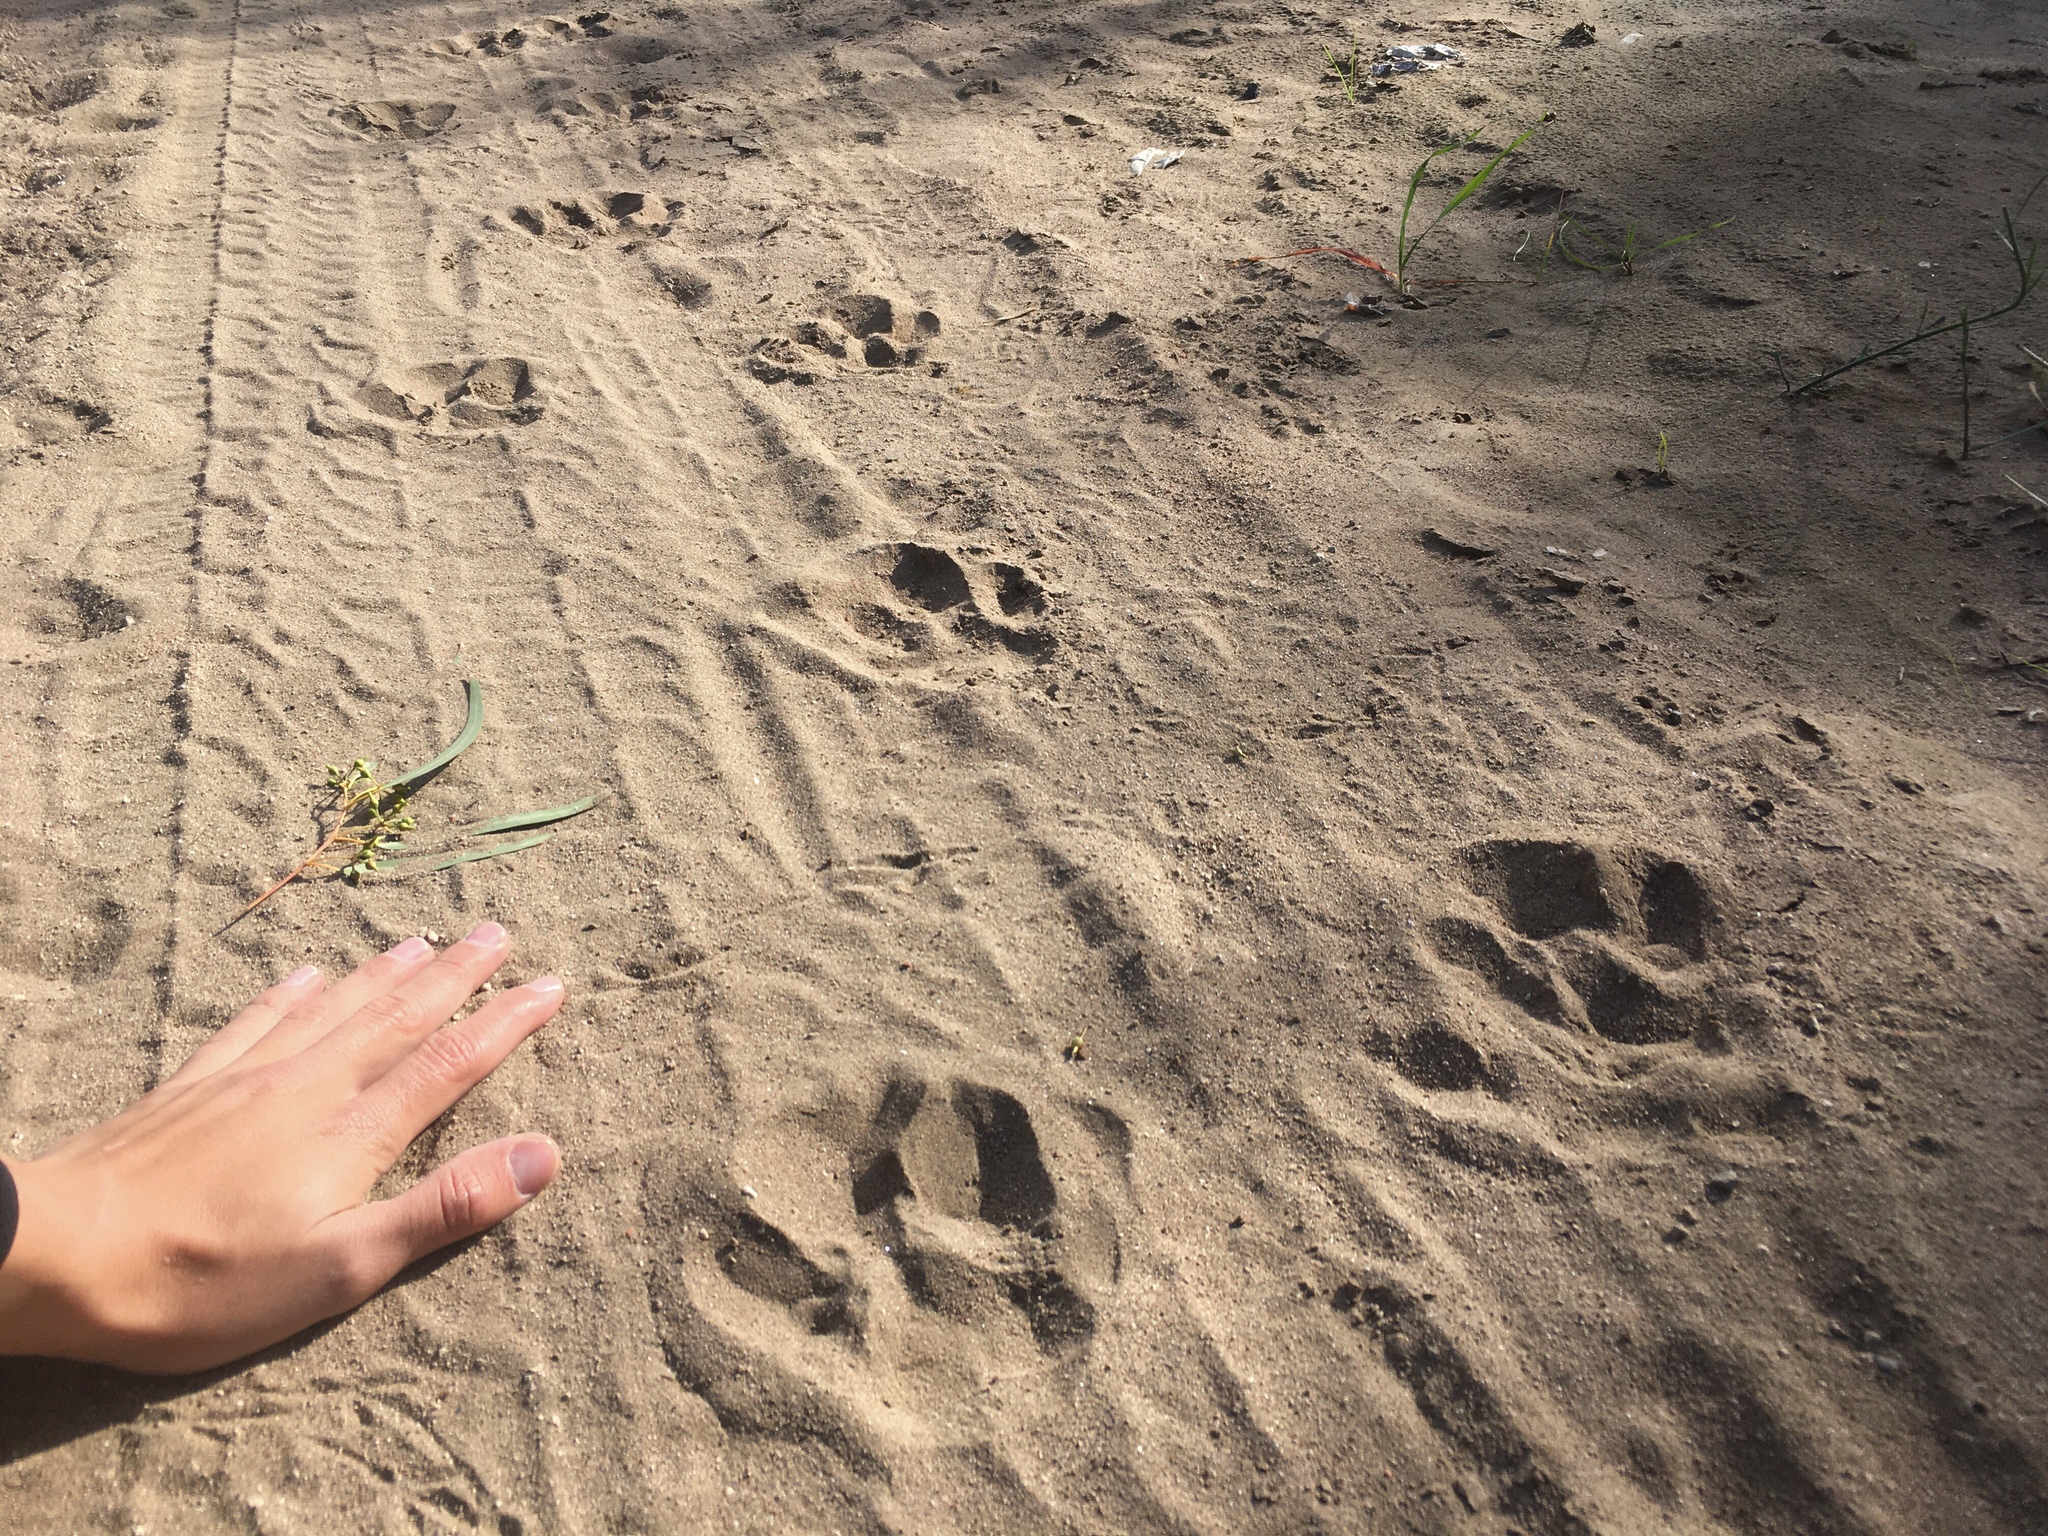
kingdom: Animalia
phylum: Chordata
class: Mammalia
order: Rodentia
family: Caviidae
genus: Hydrochoerus
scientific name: Hydrochoerus hydrochaeris
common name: Capybara
